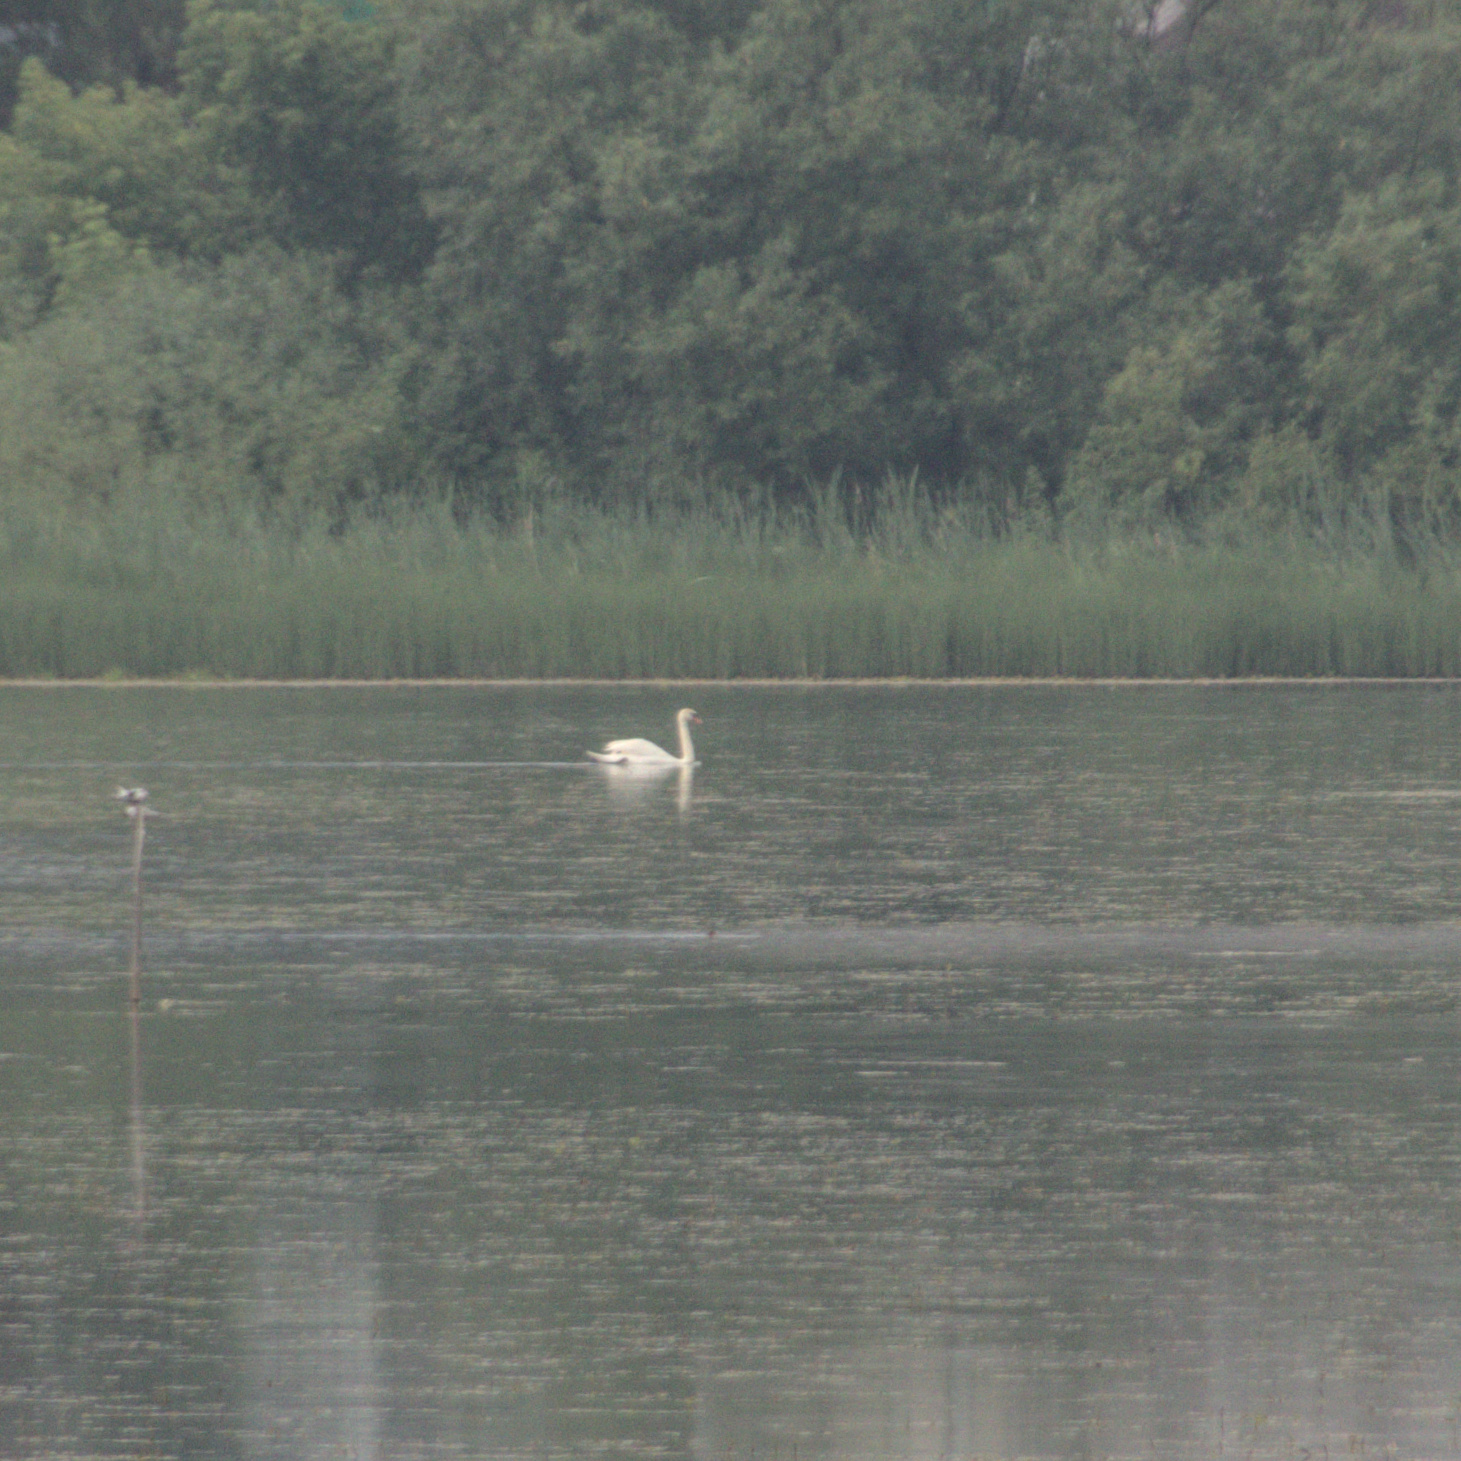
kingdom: Animalia
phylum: Chordata
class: Aves
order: Anseriformes
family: Anatidae
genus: Cygnus
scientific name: Cygnus olor
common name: Mute swan
